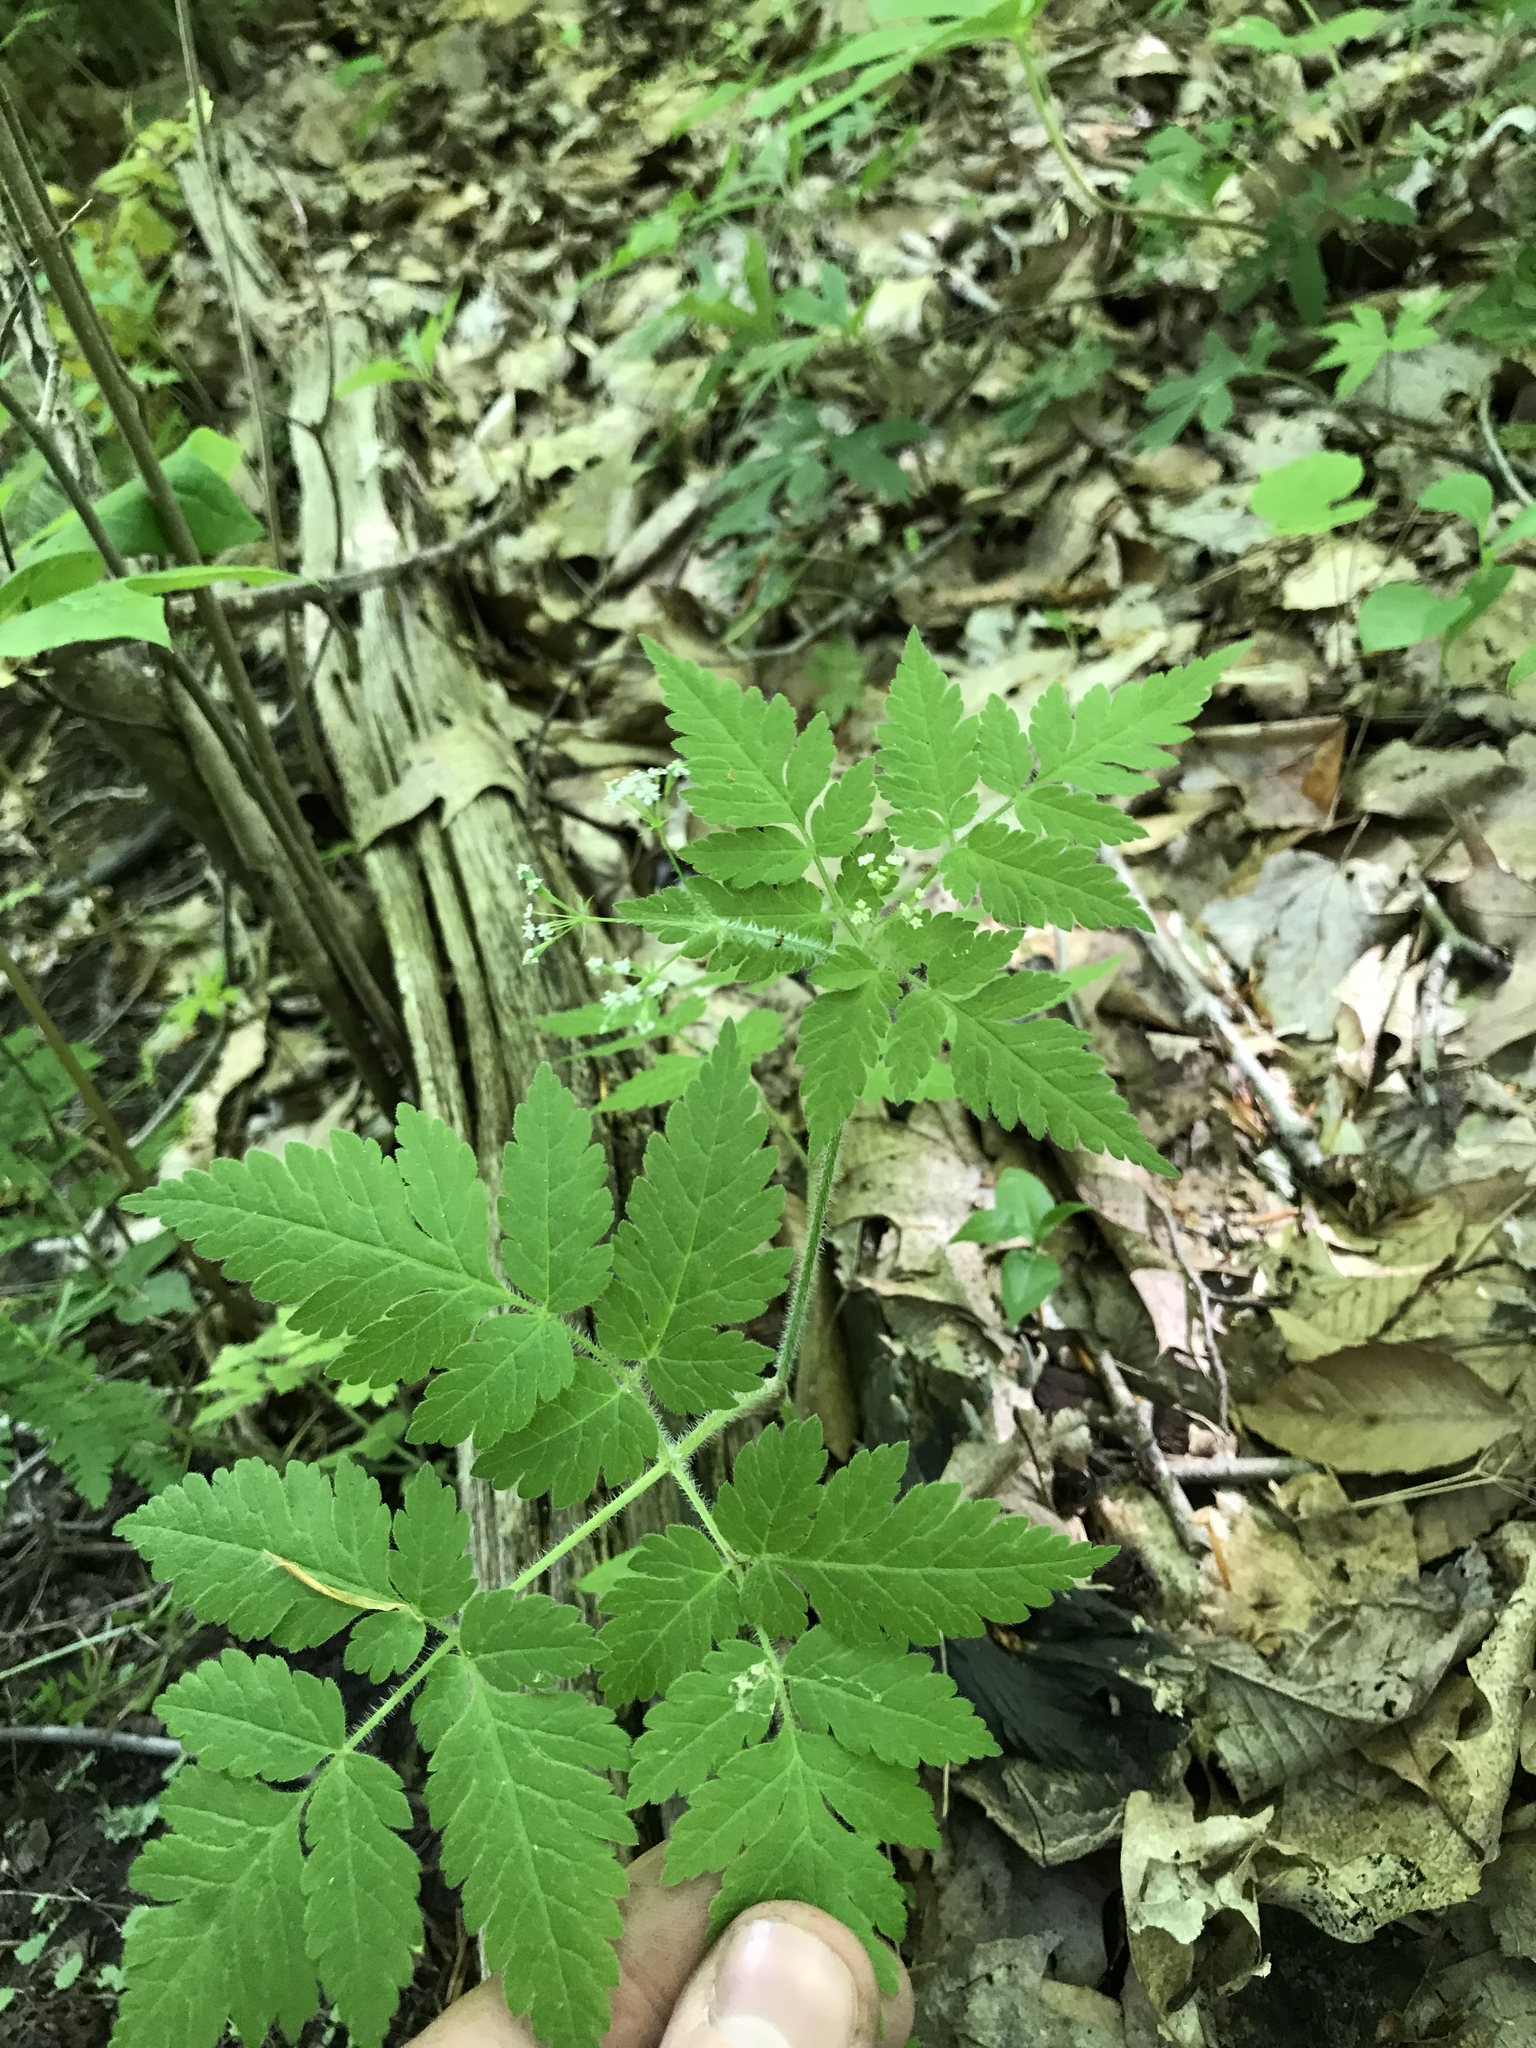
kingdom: Plantae
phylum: Tracheophyta
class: Magnoliopsida
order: Apiales
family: Apiaceae
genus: Osmorhiza
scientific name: Osmorhiza claytonii
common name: Hairy sweet cicely
